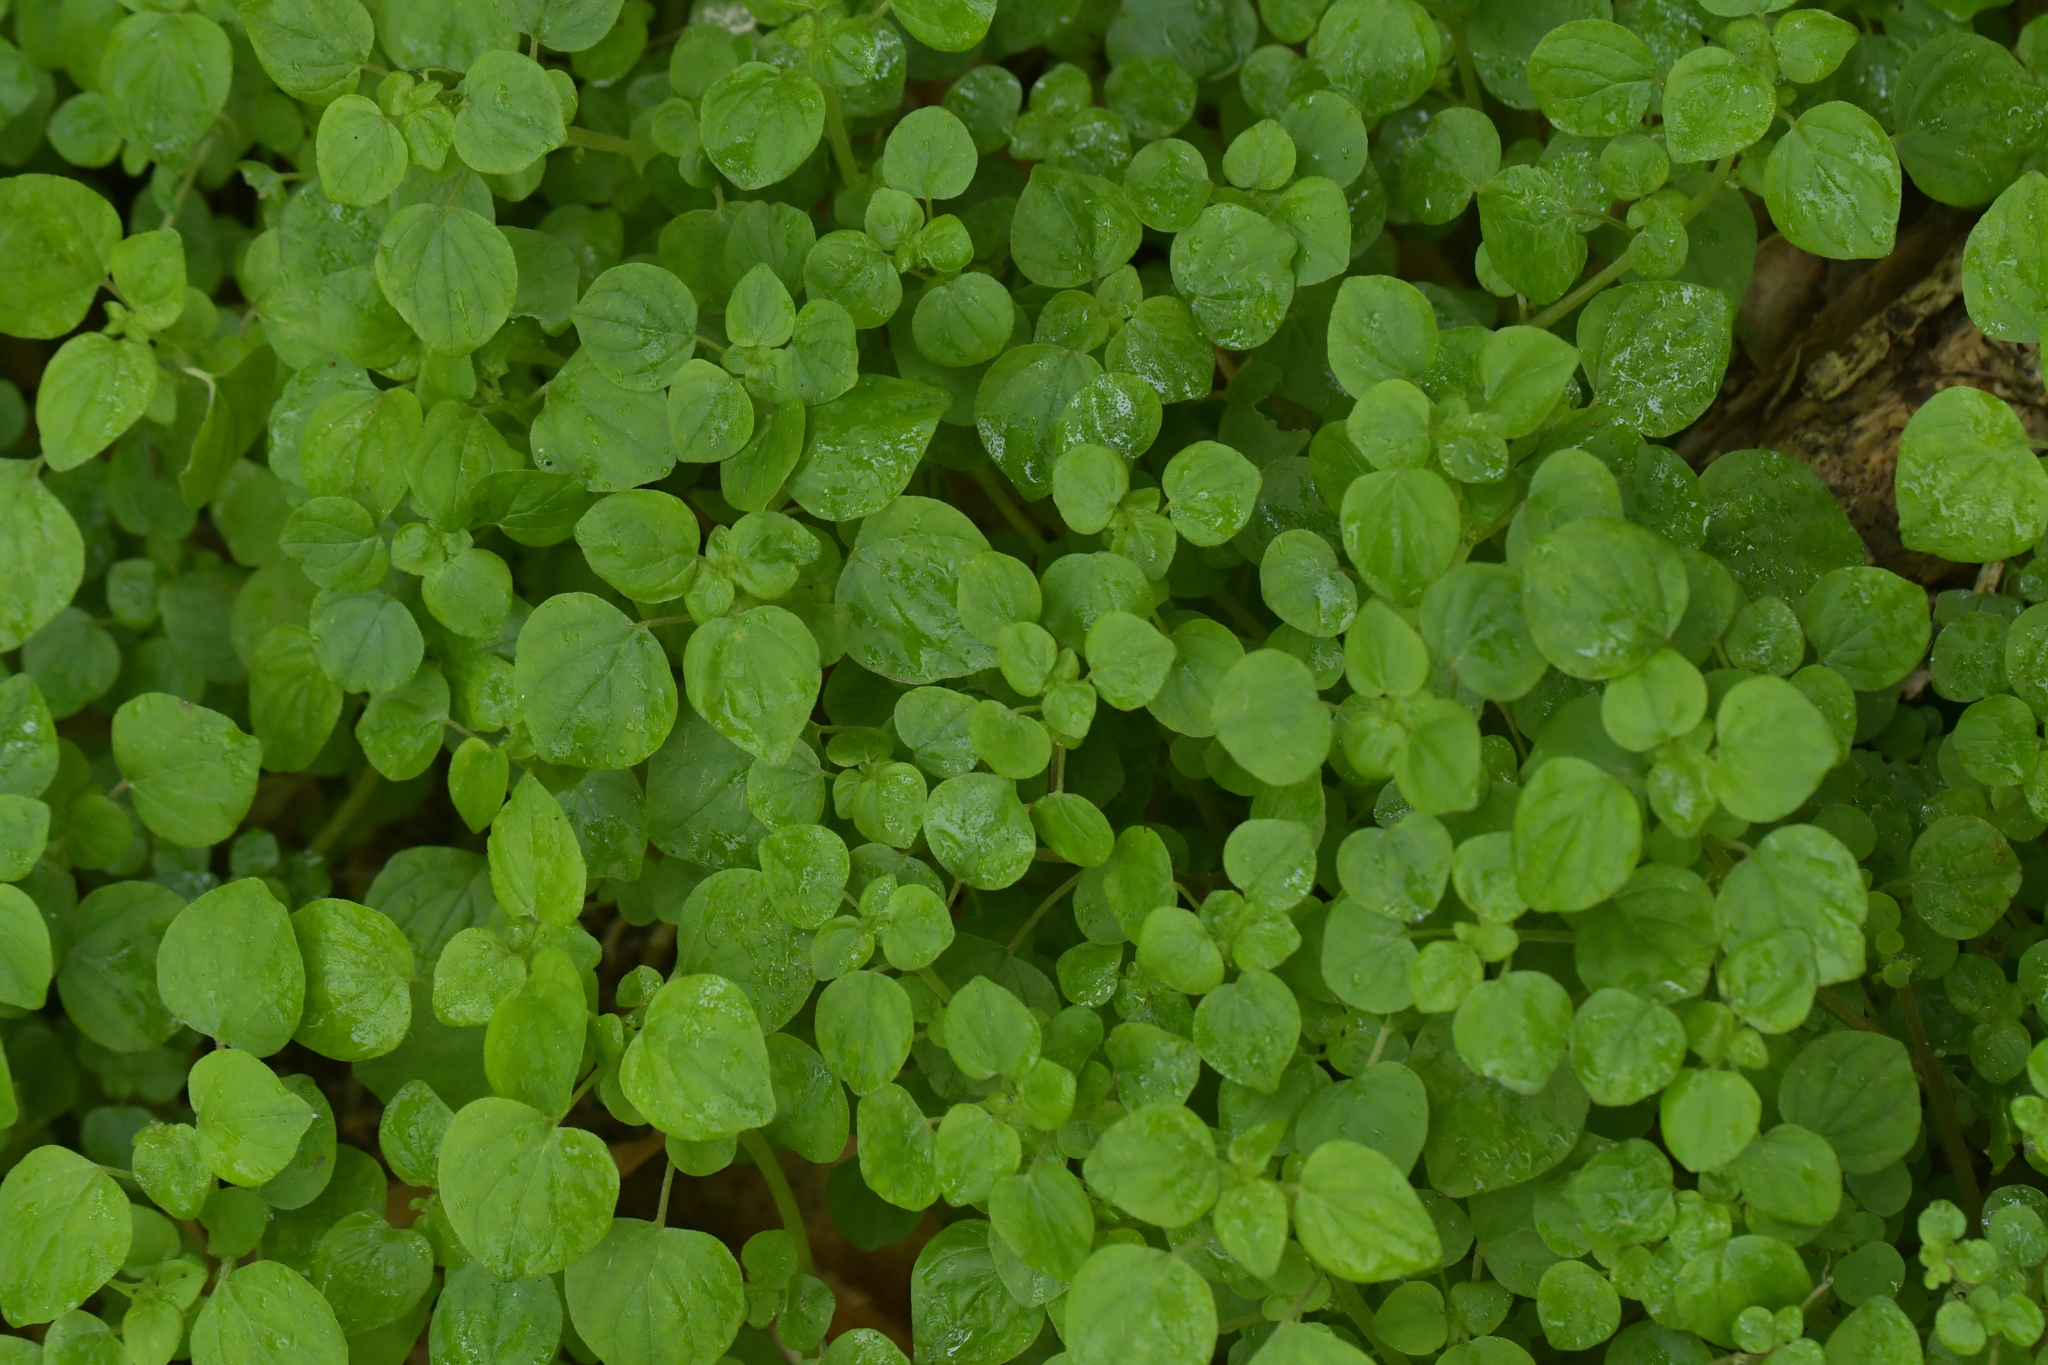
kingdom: Plantae
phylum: Tracheophyta
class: Magnoliopsida
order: Rosales
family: Urticaceae
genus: Parietaria
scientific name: Parietaria debilis
